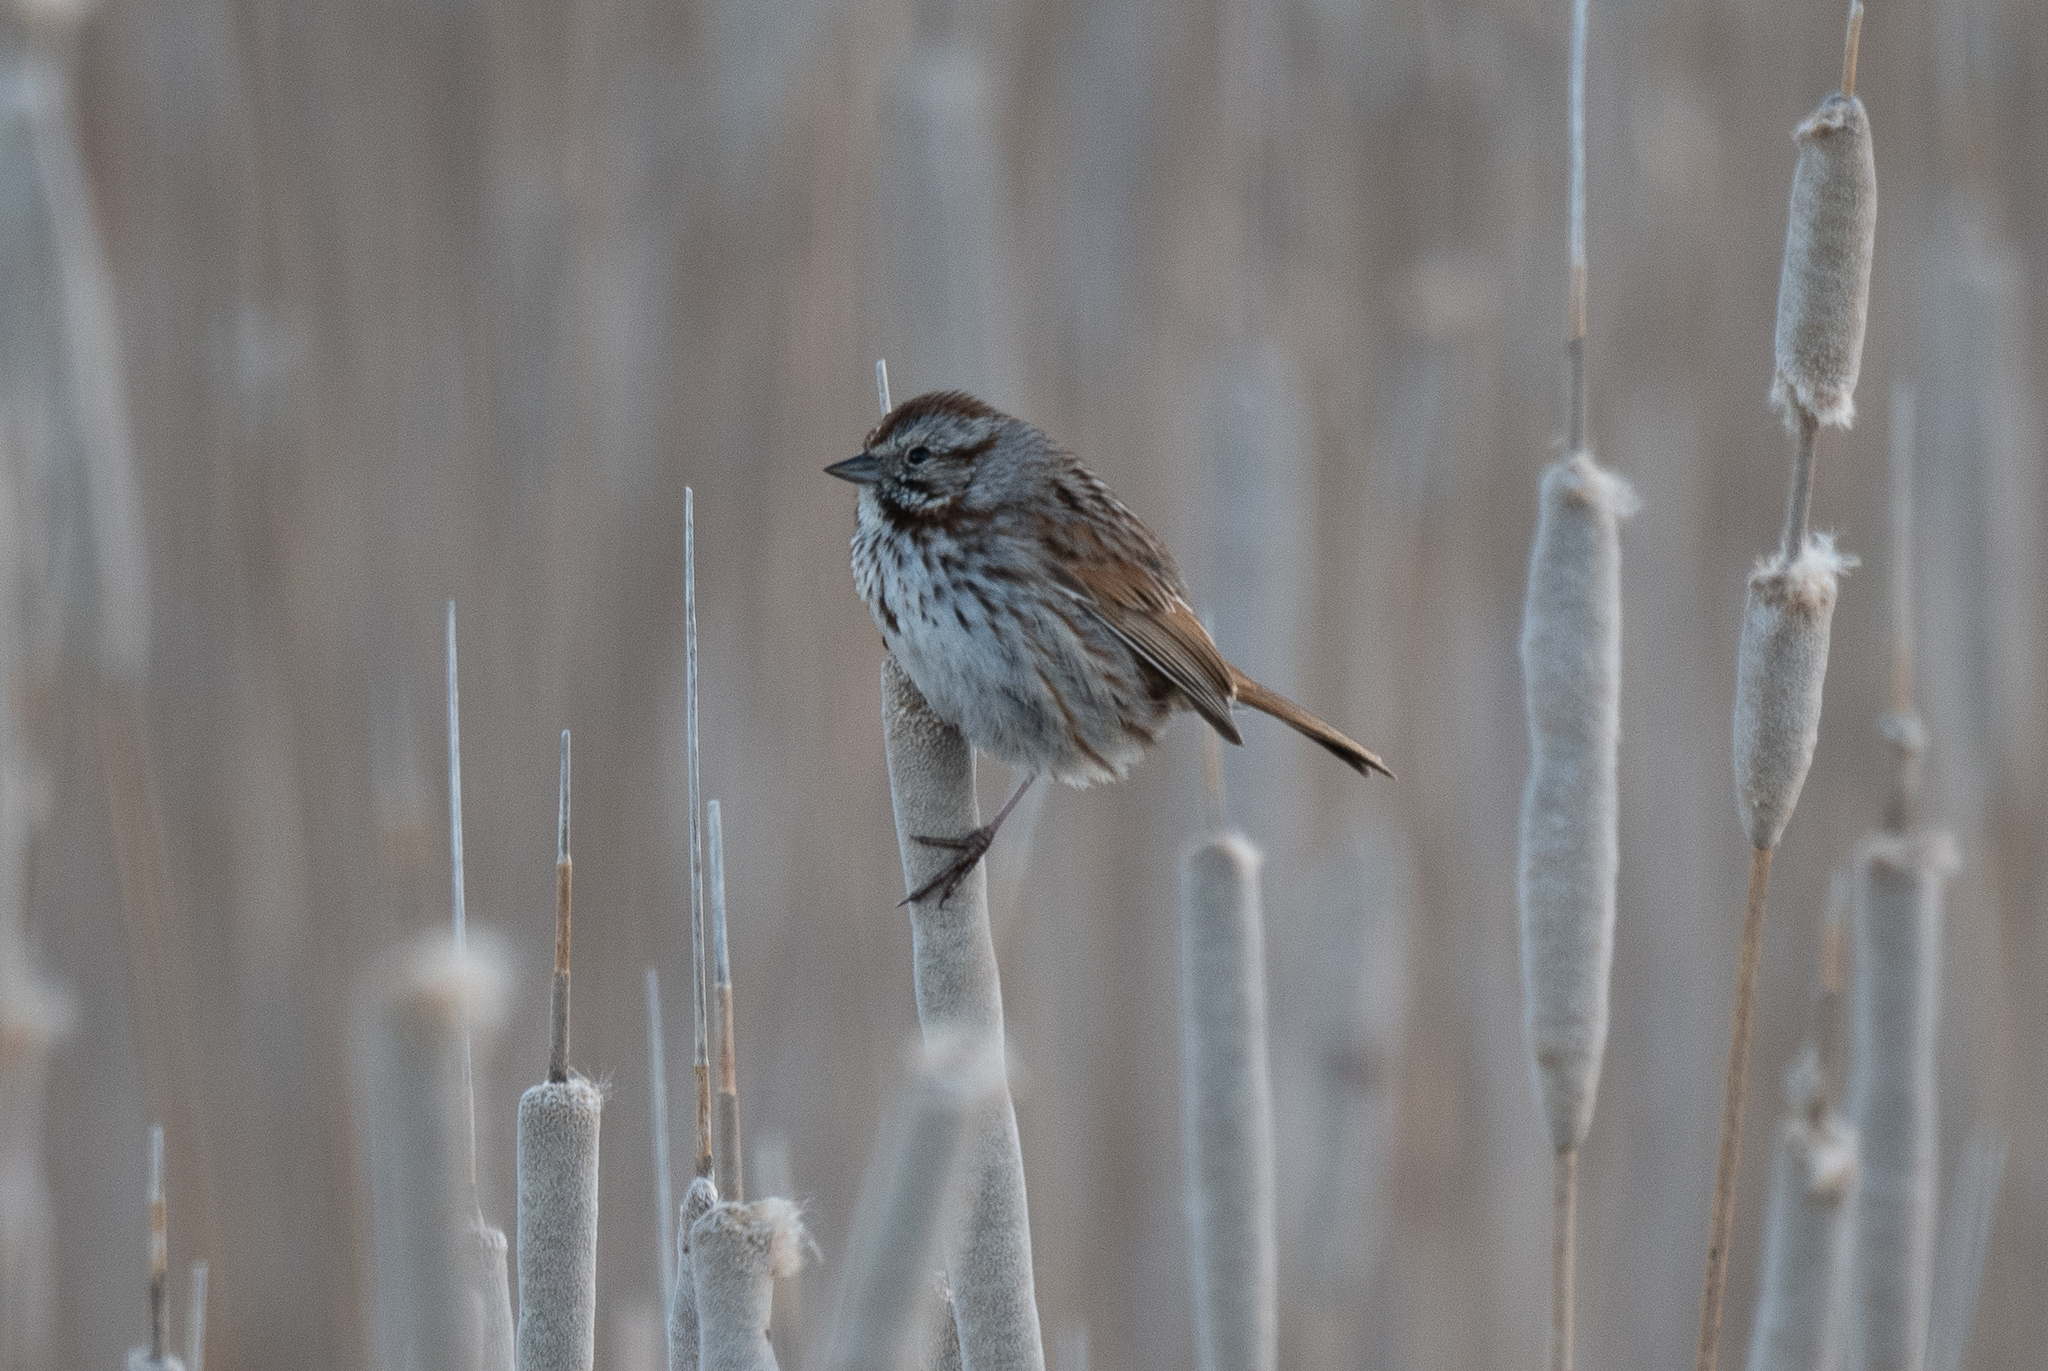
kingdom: Animalia
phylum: Chordata
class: Aves
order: Passeriformes
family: Passerellidae
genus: Melospiza
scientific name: Melospiza melodia
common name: Song sparrow
